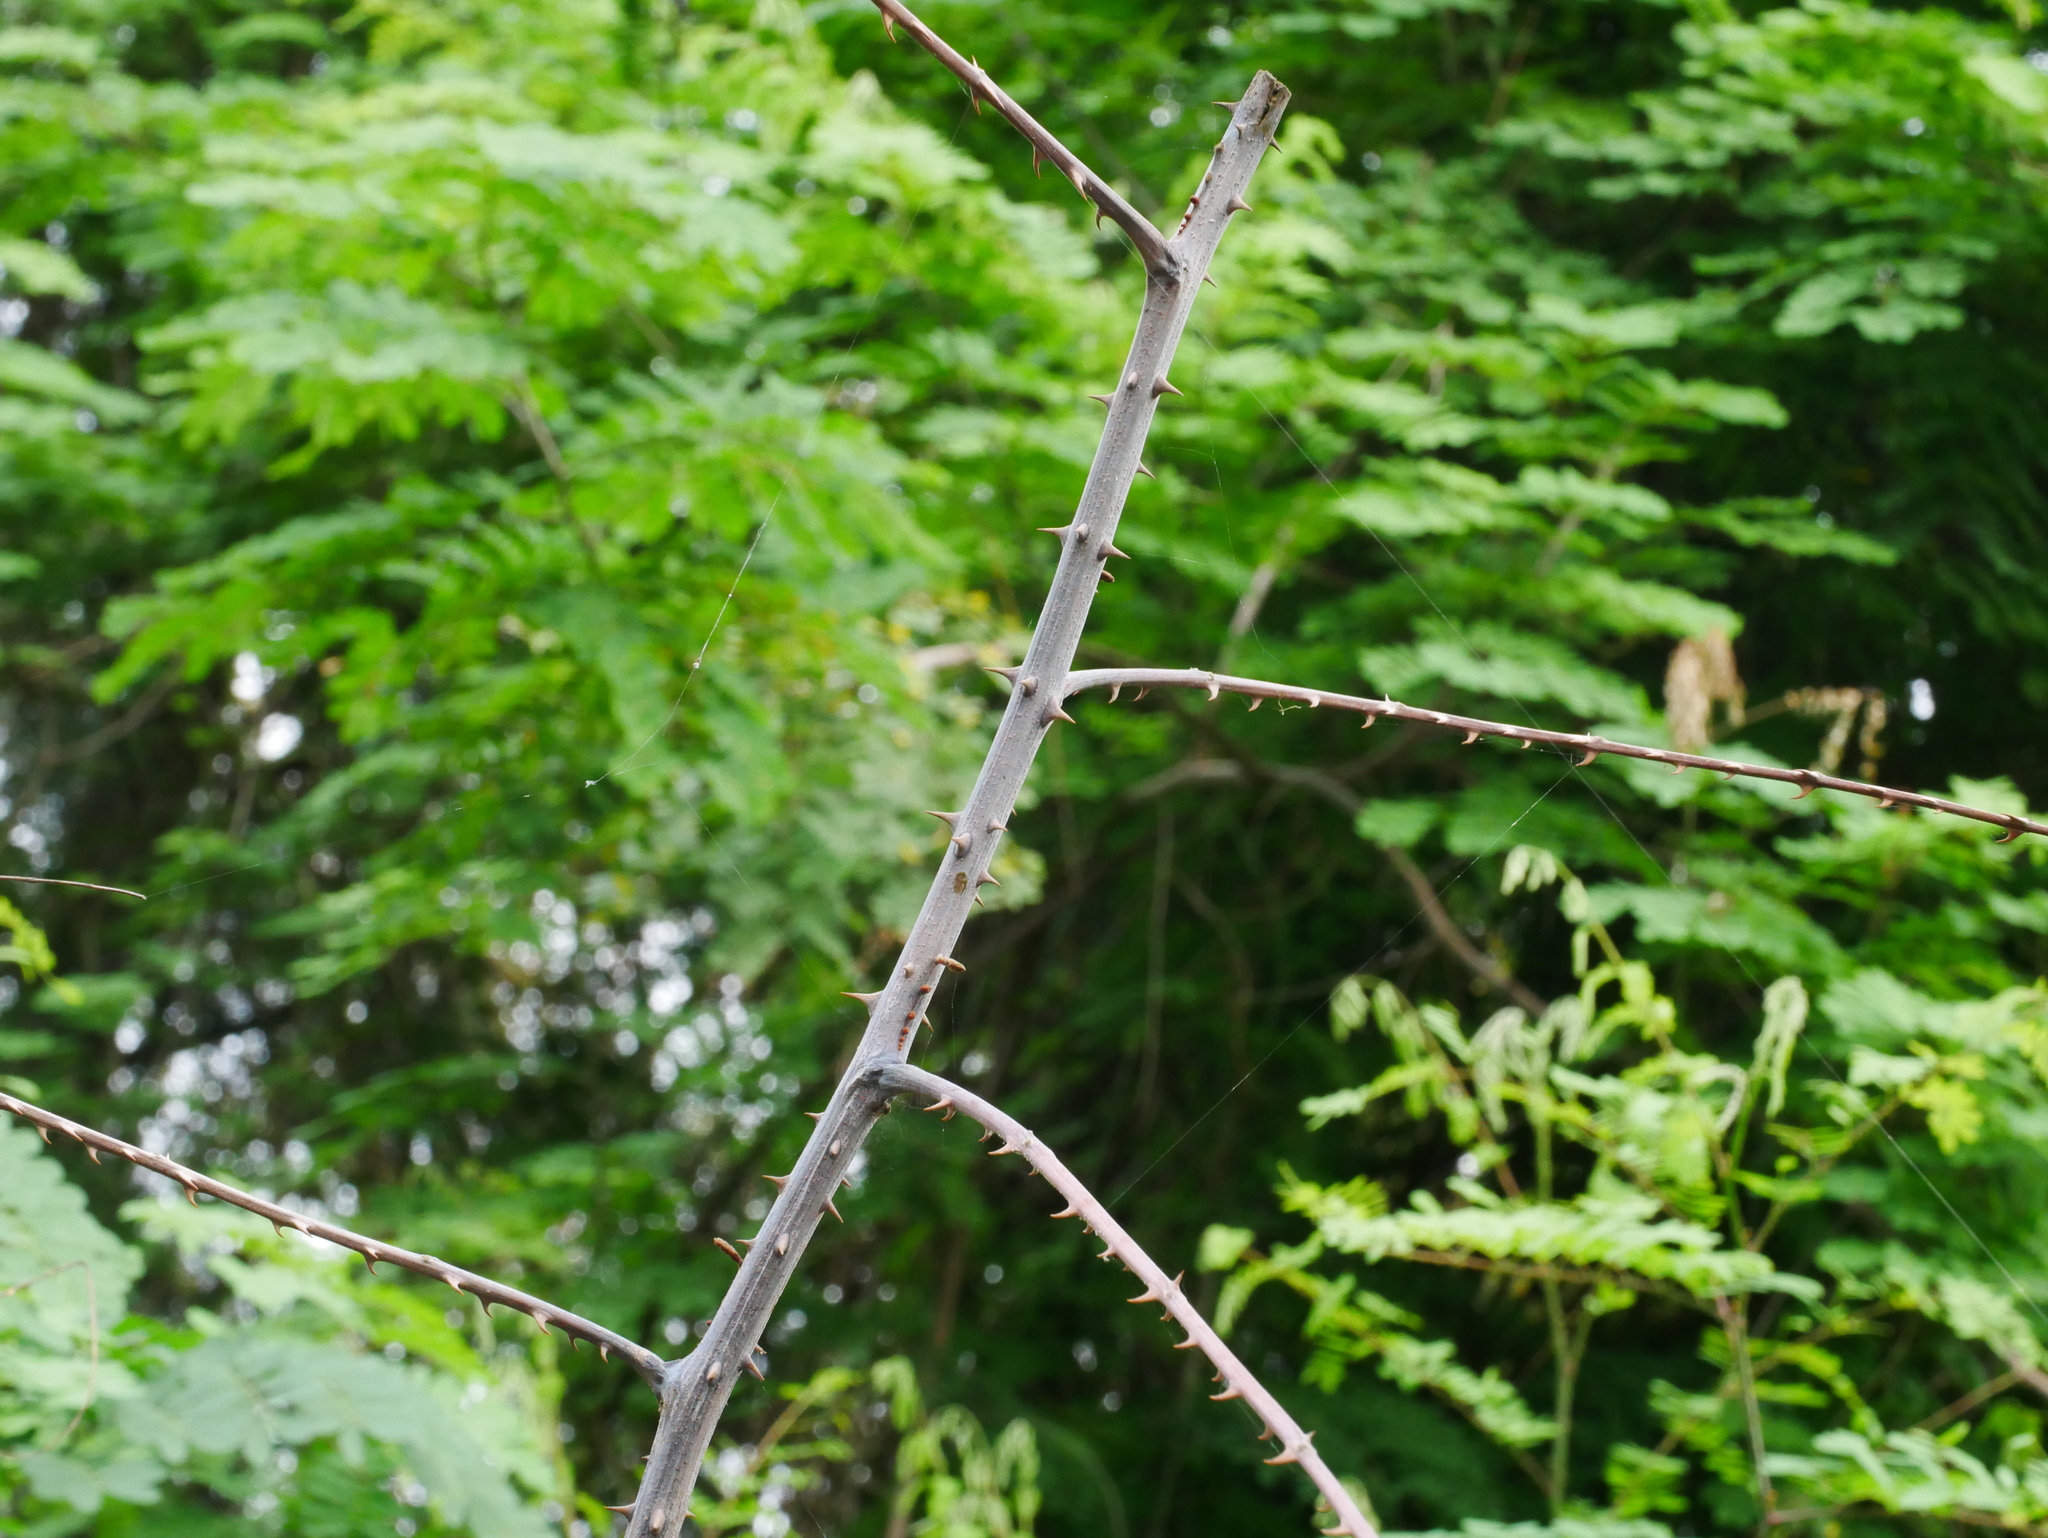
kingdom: Plantae
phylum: Tracheophyta
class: Magnoliopsida
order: Fabales
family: Fabaceae
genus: Biancaea
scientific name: Biancaea decapetala
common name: Cat's claw
